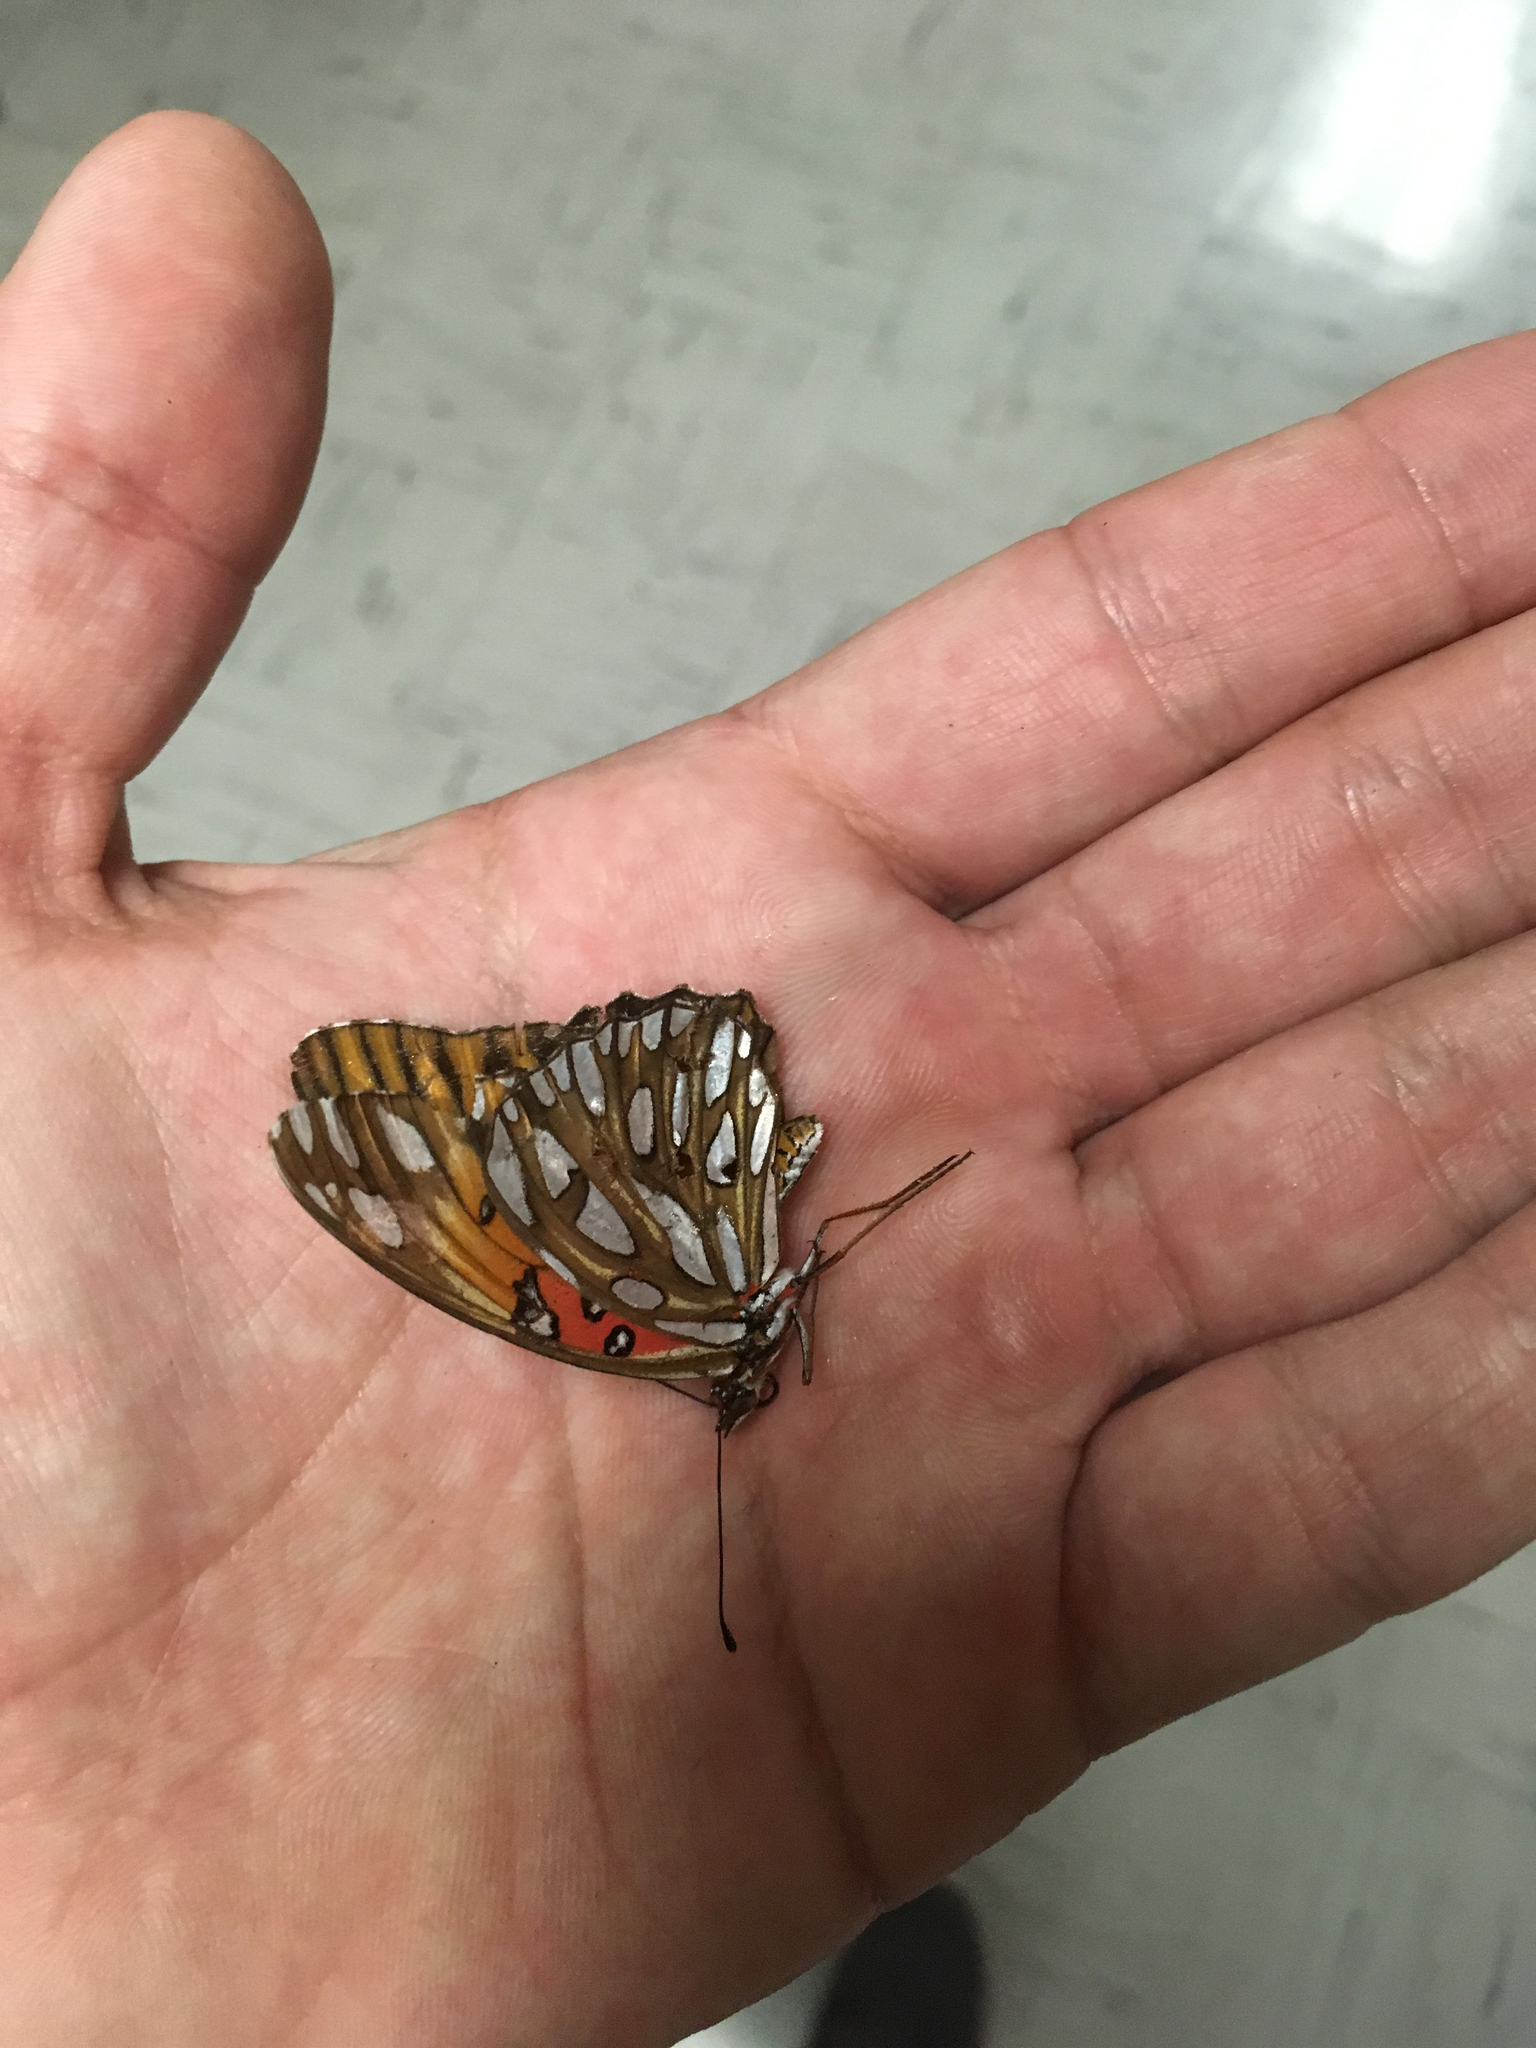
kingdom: Animalia
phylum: Arthropoda
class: Insecta
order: Lepidoptera
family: Nymphalidae
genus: Dione
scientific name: Dione vanillae
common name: Gulf fritillary
